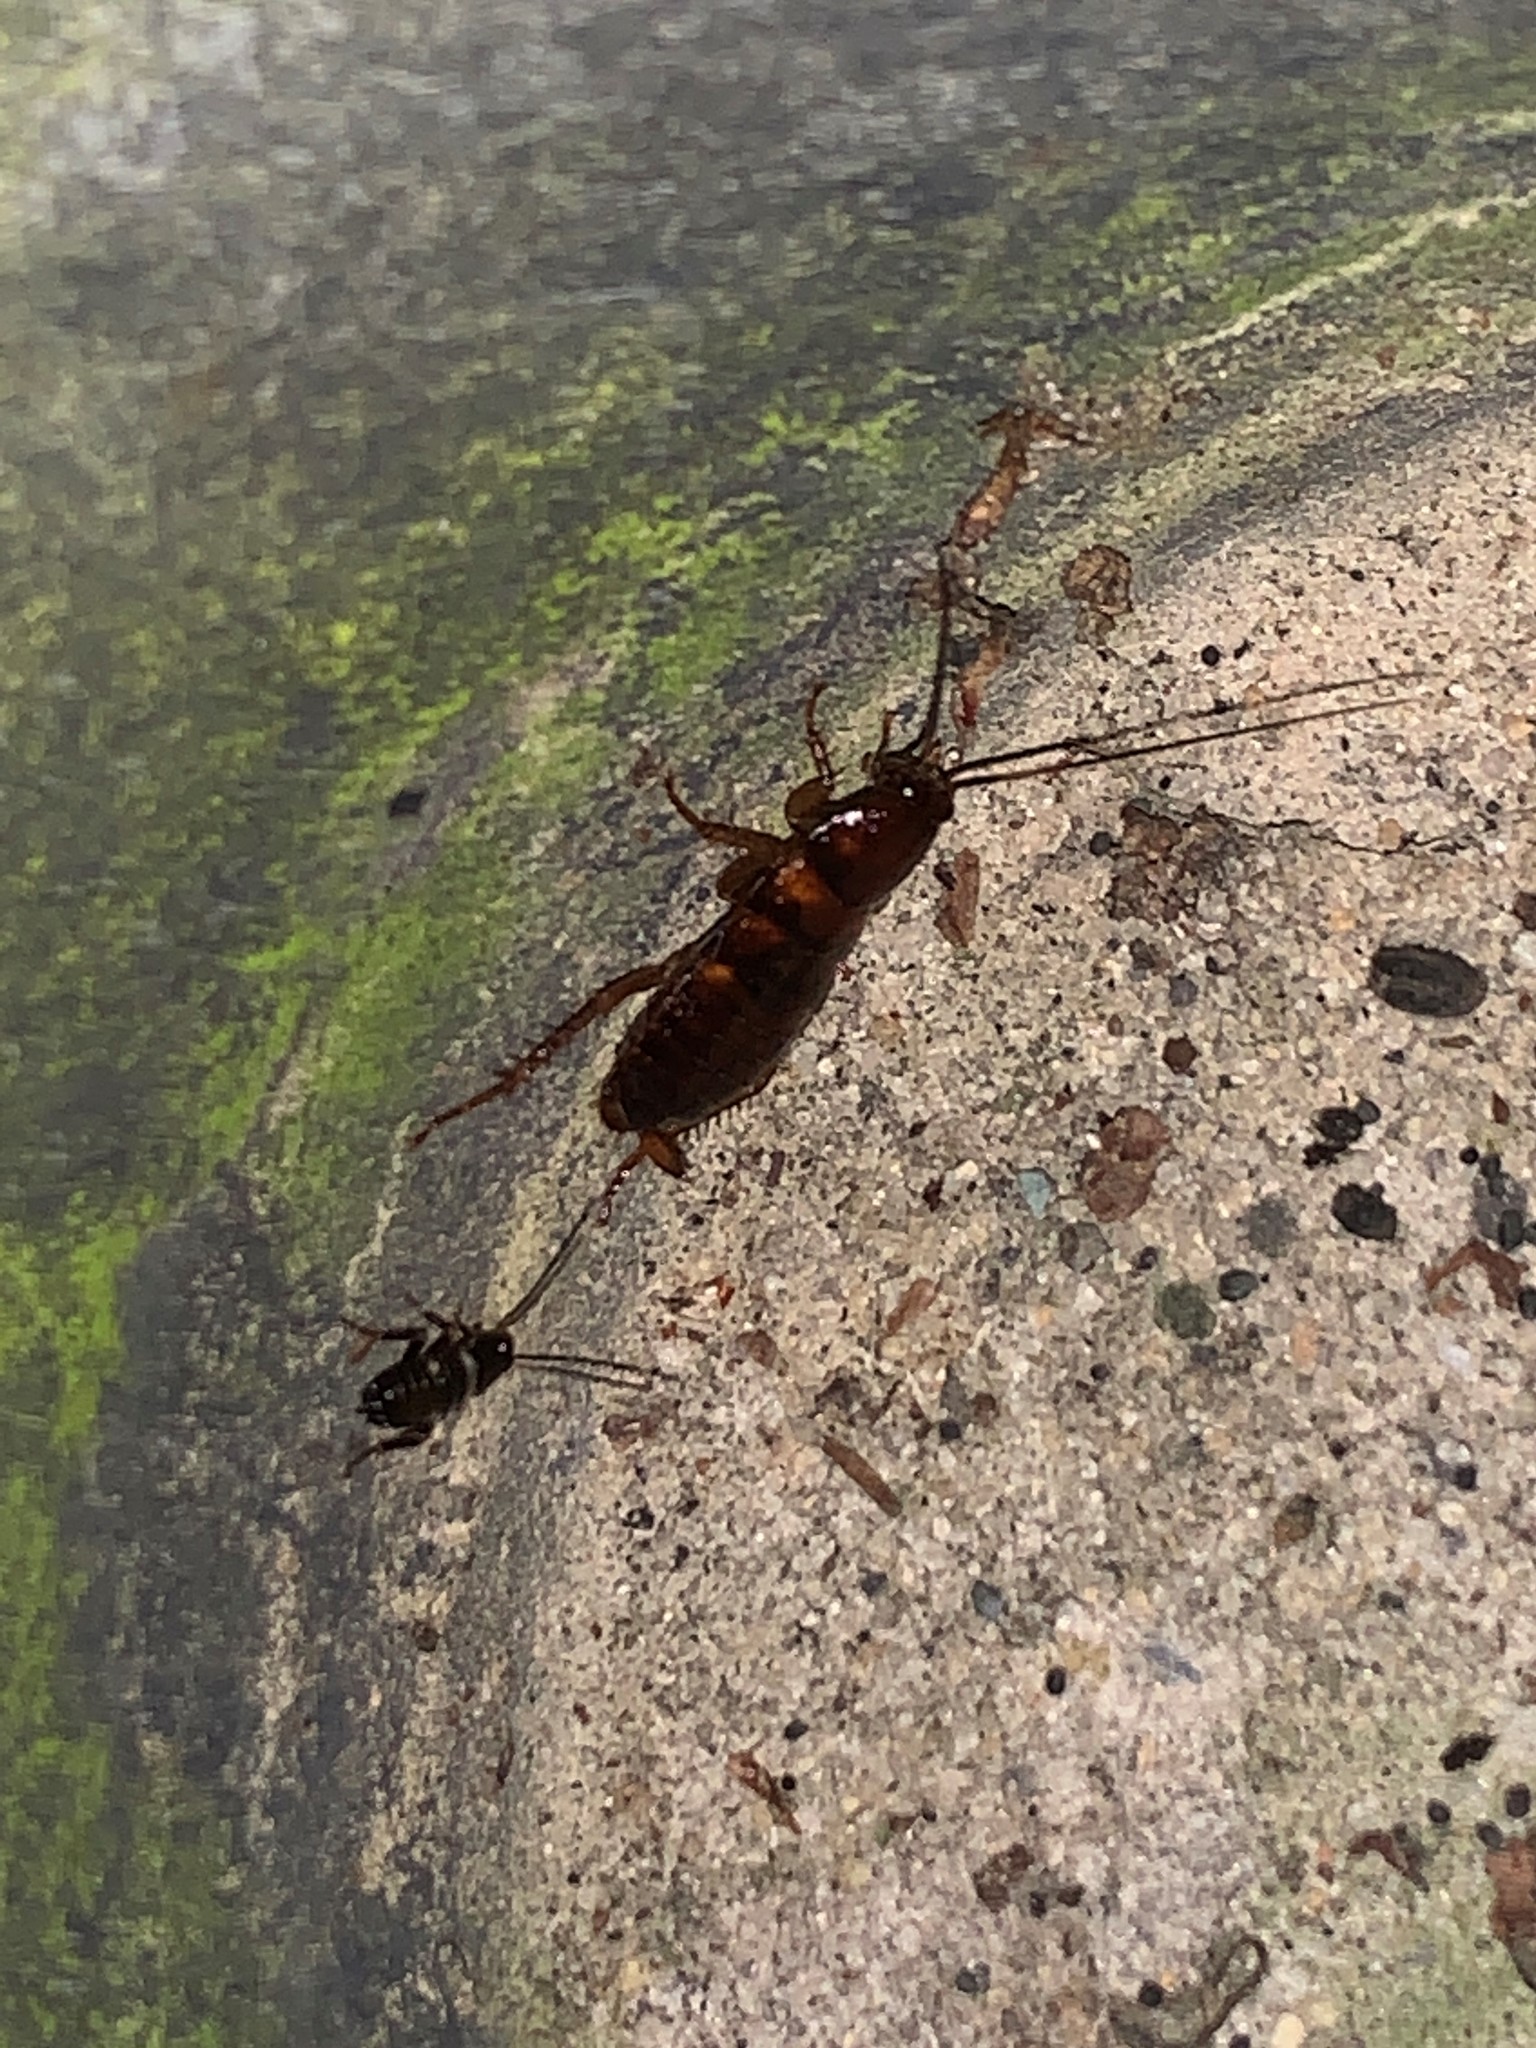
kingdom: Animalia
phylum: Arthropoda
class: Insecta
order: Blattodea
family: Blattidae
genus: Periplaneta
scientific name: Periplaneta fuliginosa
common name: Smokeybrown cockroad
